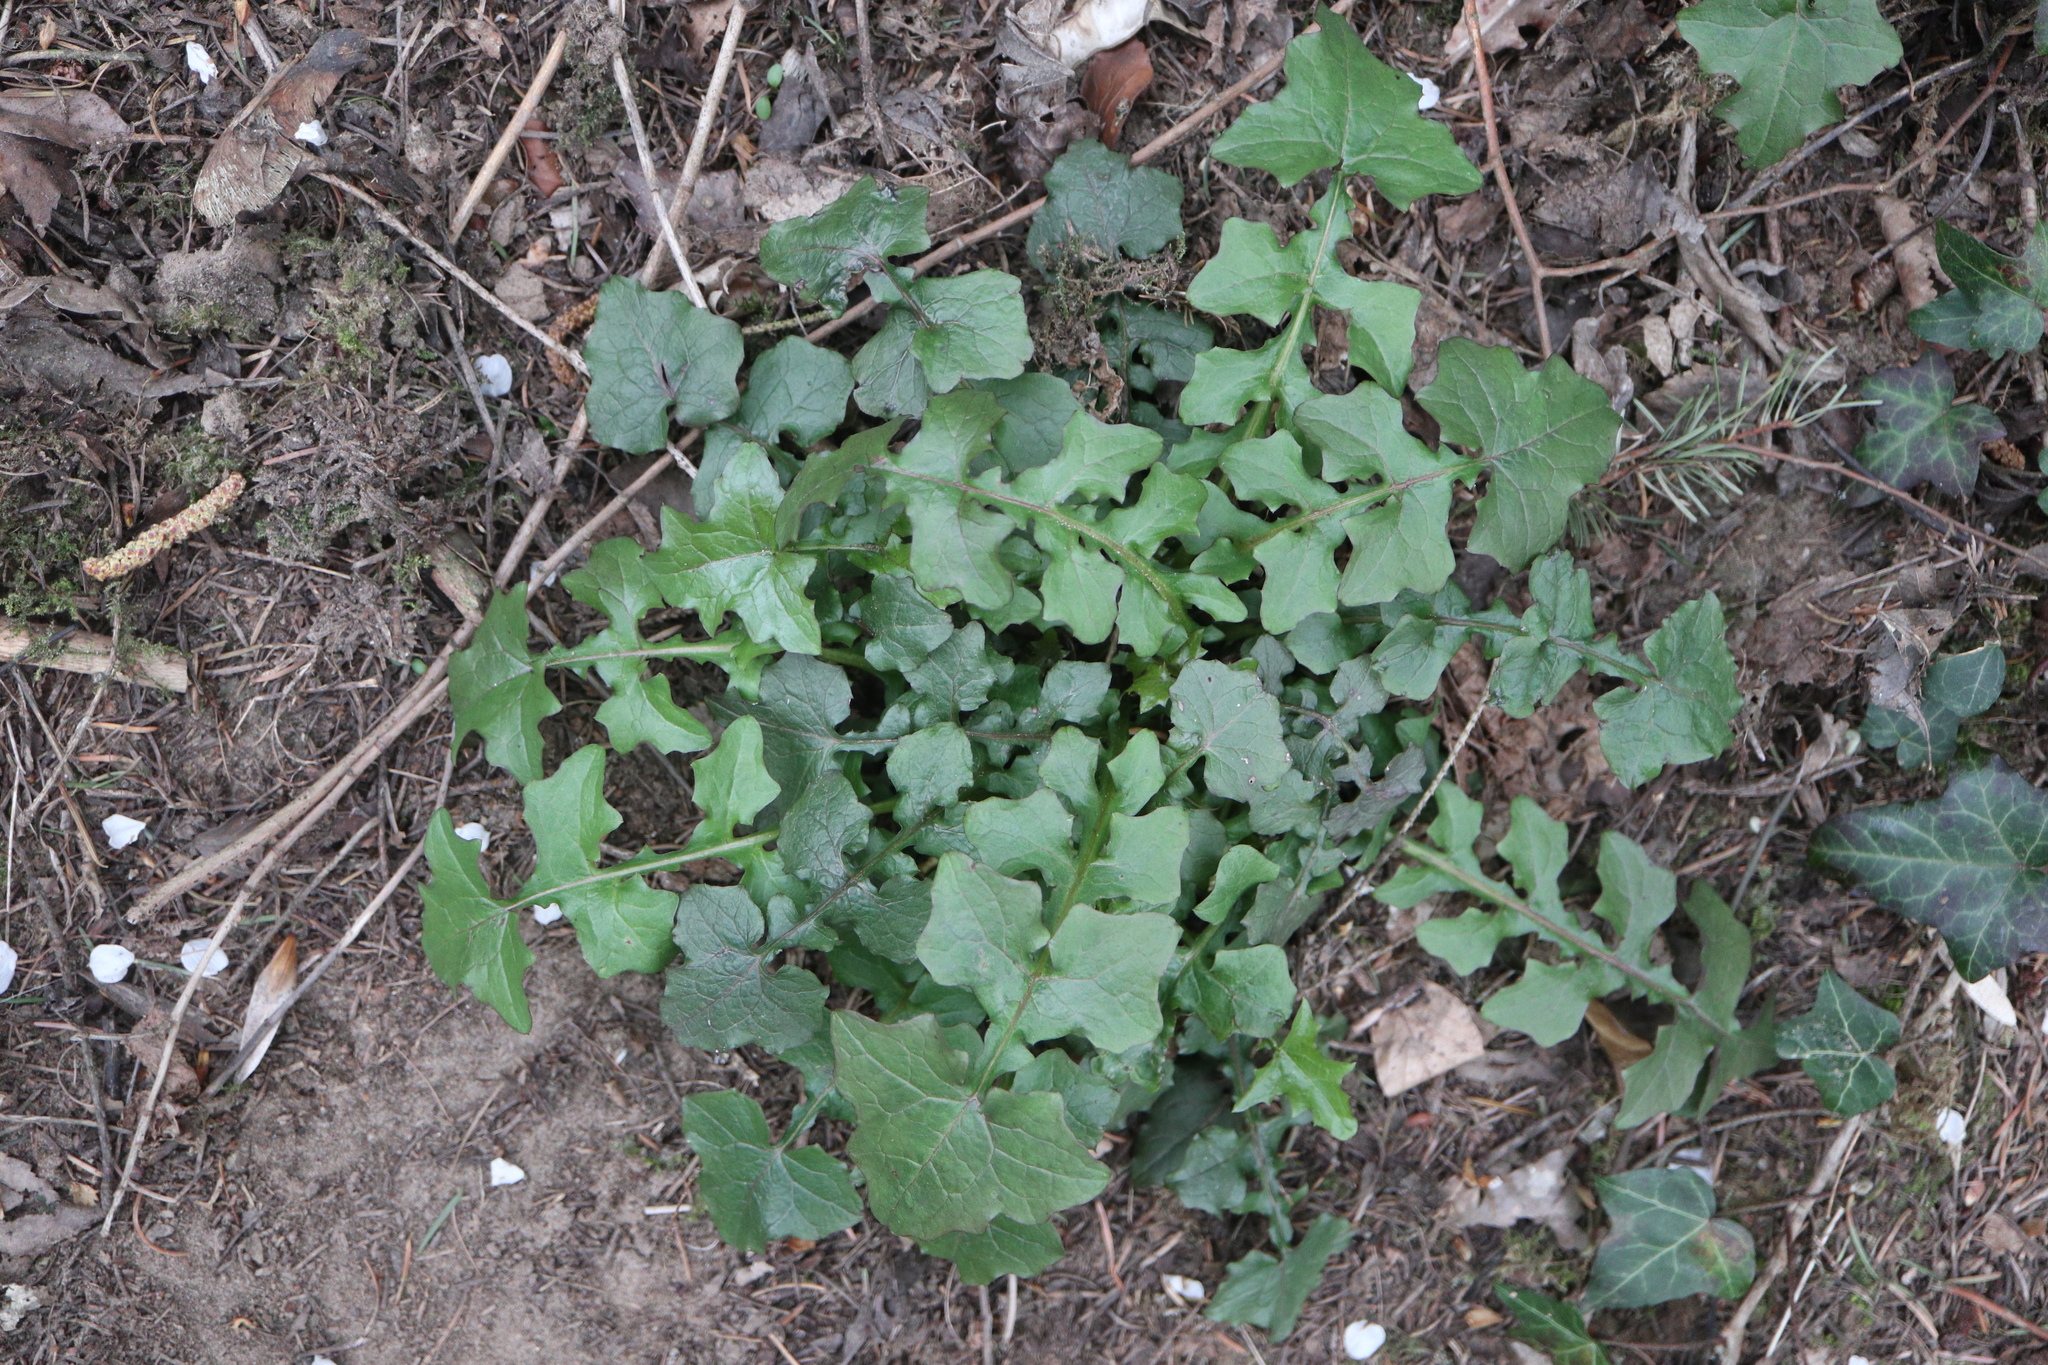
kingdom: Plantae
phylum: Tracheophyta
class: Magnoliopsida
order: Asterales
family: Asteraceae
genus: Mycelis
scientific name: Mycelis muralis
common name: Wall lettuce
